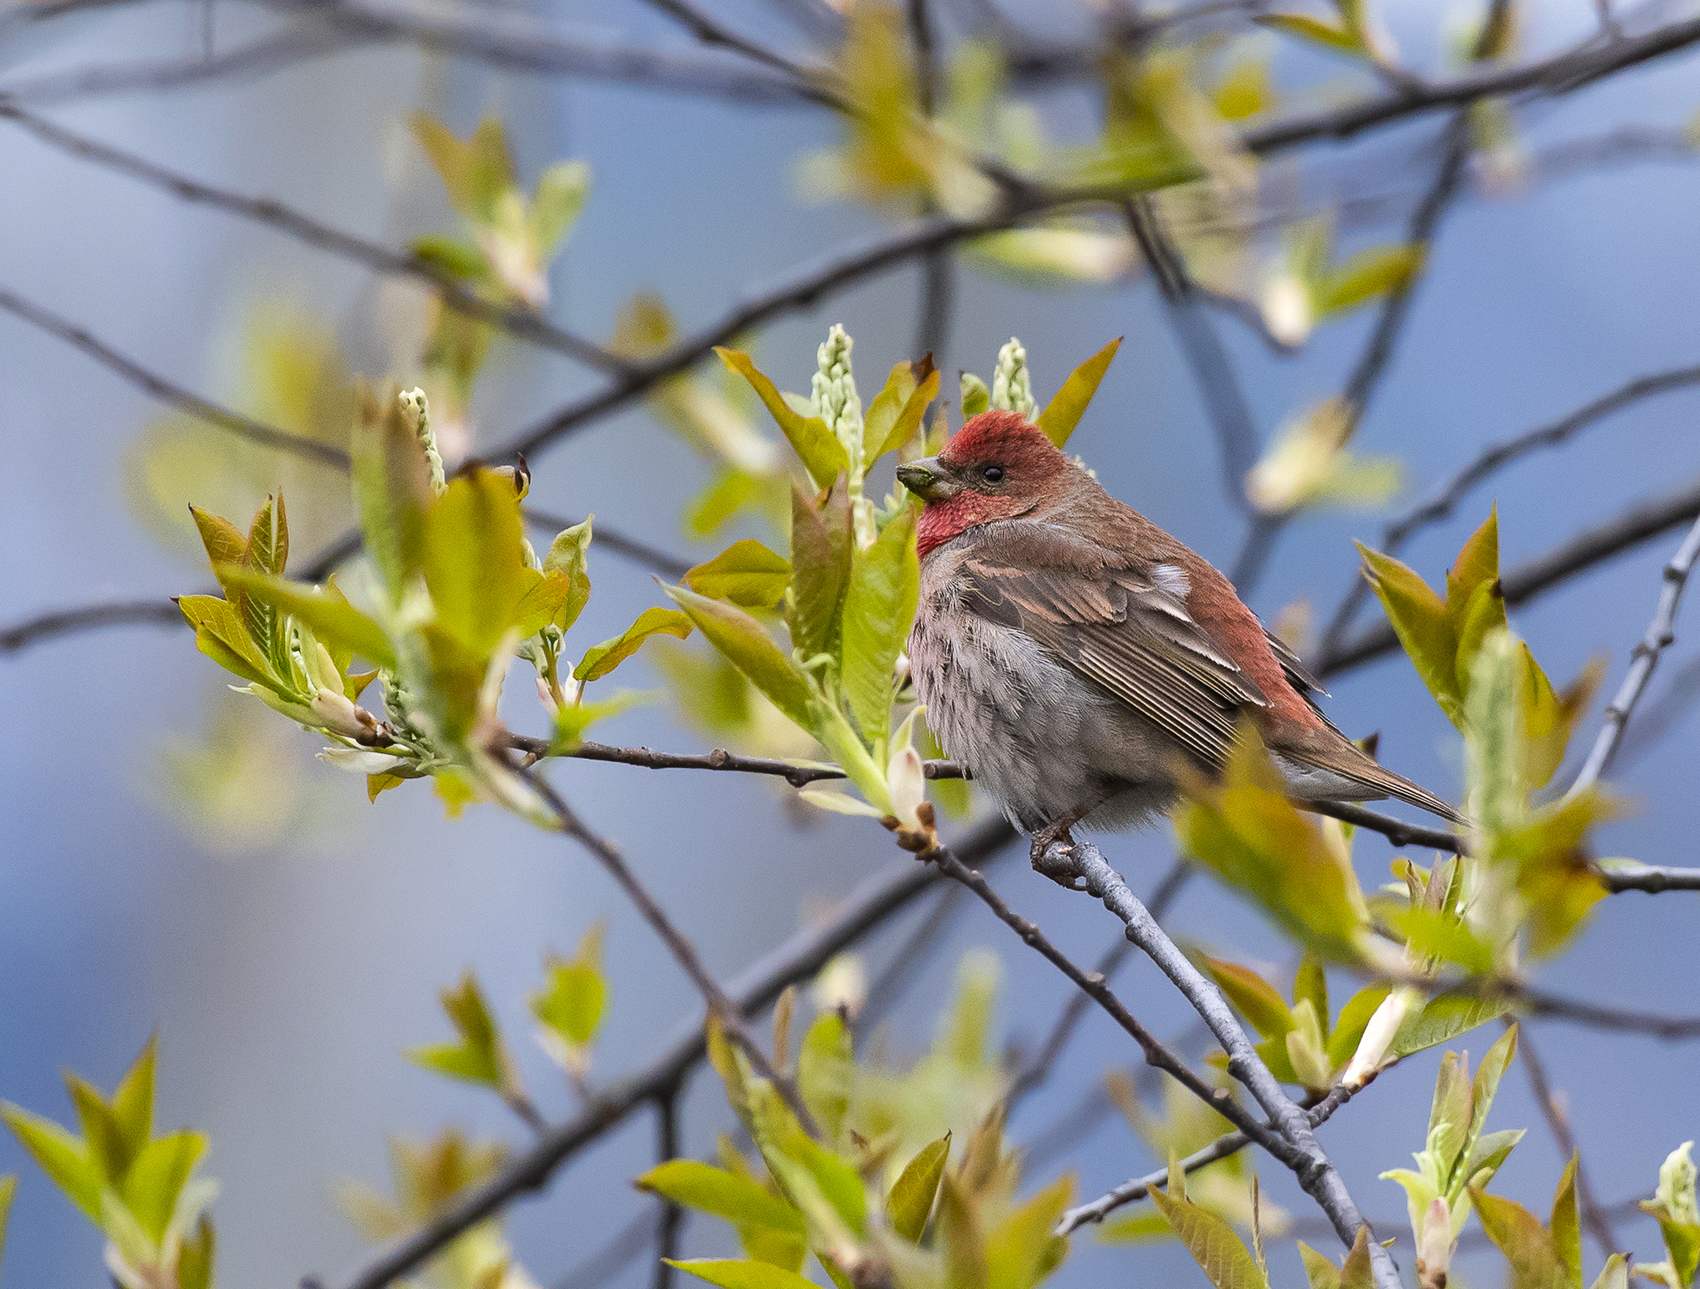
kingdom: Animalia
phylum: Chordata
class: Aves
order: Passeriformes
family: Fringillidae
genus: Carpodacus
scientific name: Carpodacus erythrinus
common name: Common rosefinch
